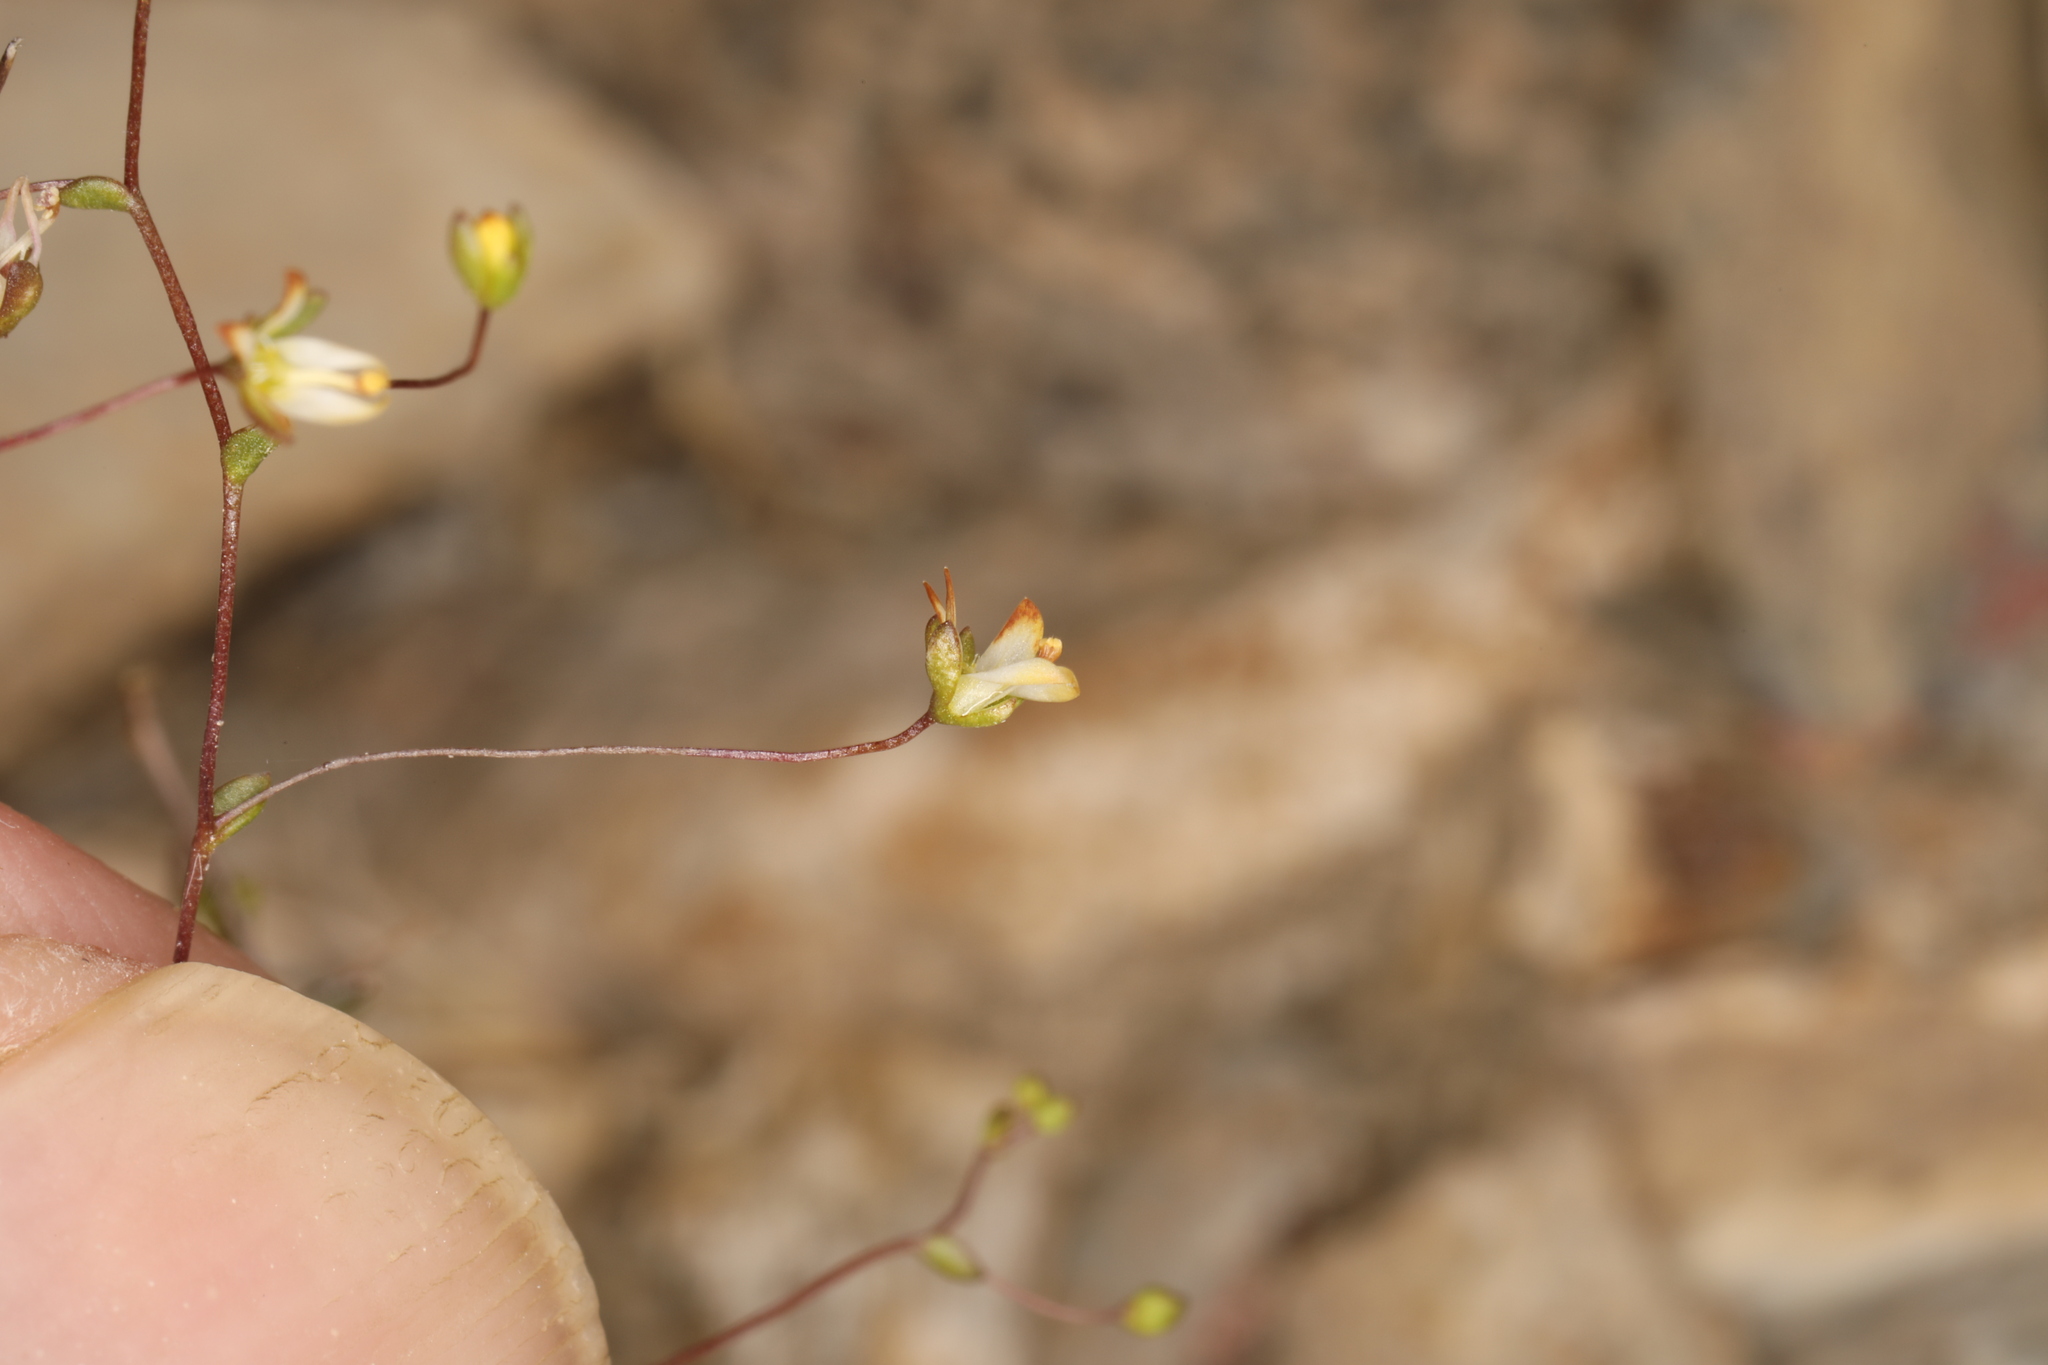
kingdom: Plantae
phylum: Tracheophyta
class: Magnoliopsida
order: Asterales
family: Campanulaceae
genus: Nemacladus
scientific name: Nemacladus morefieldii
